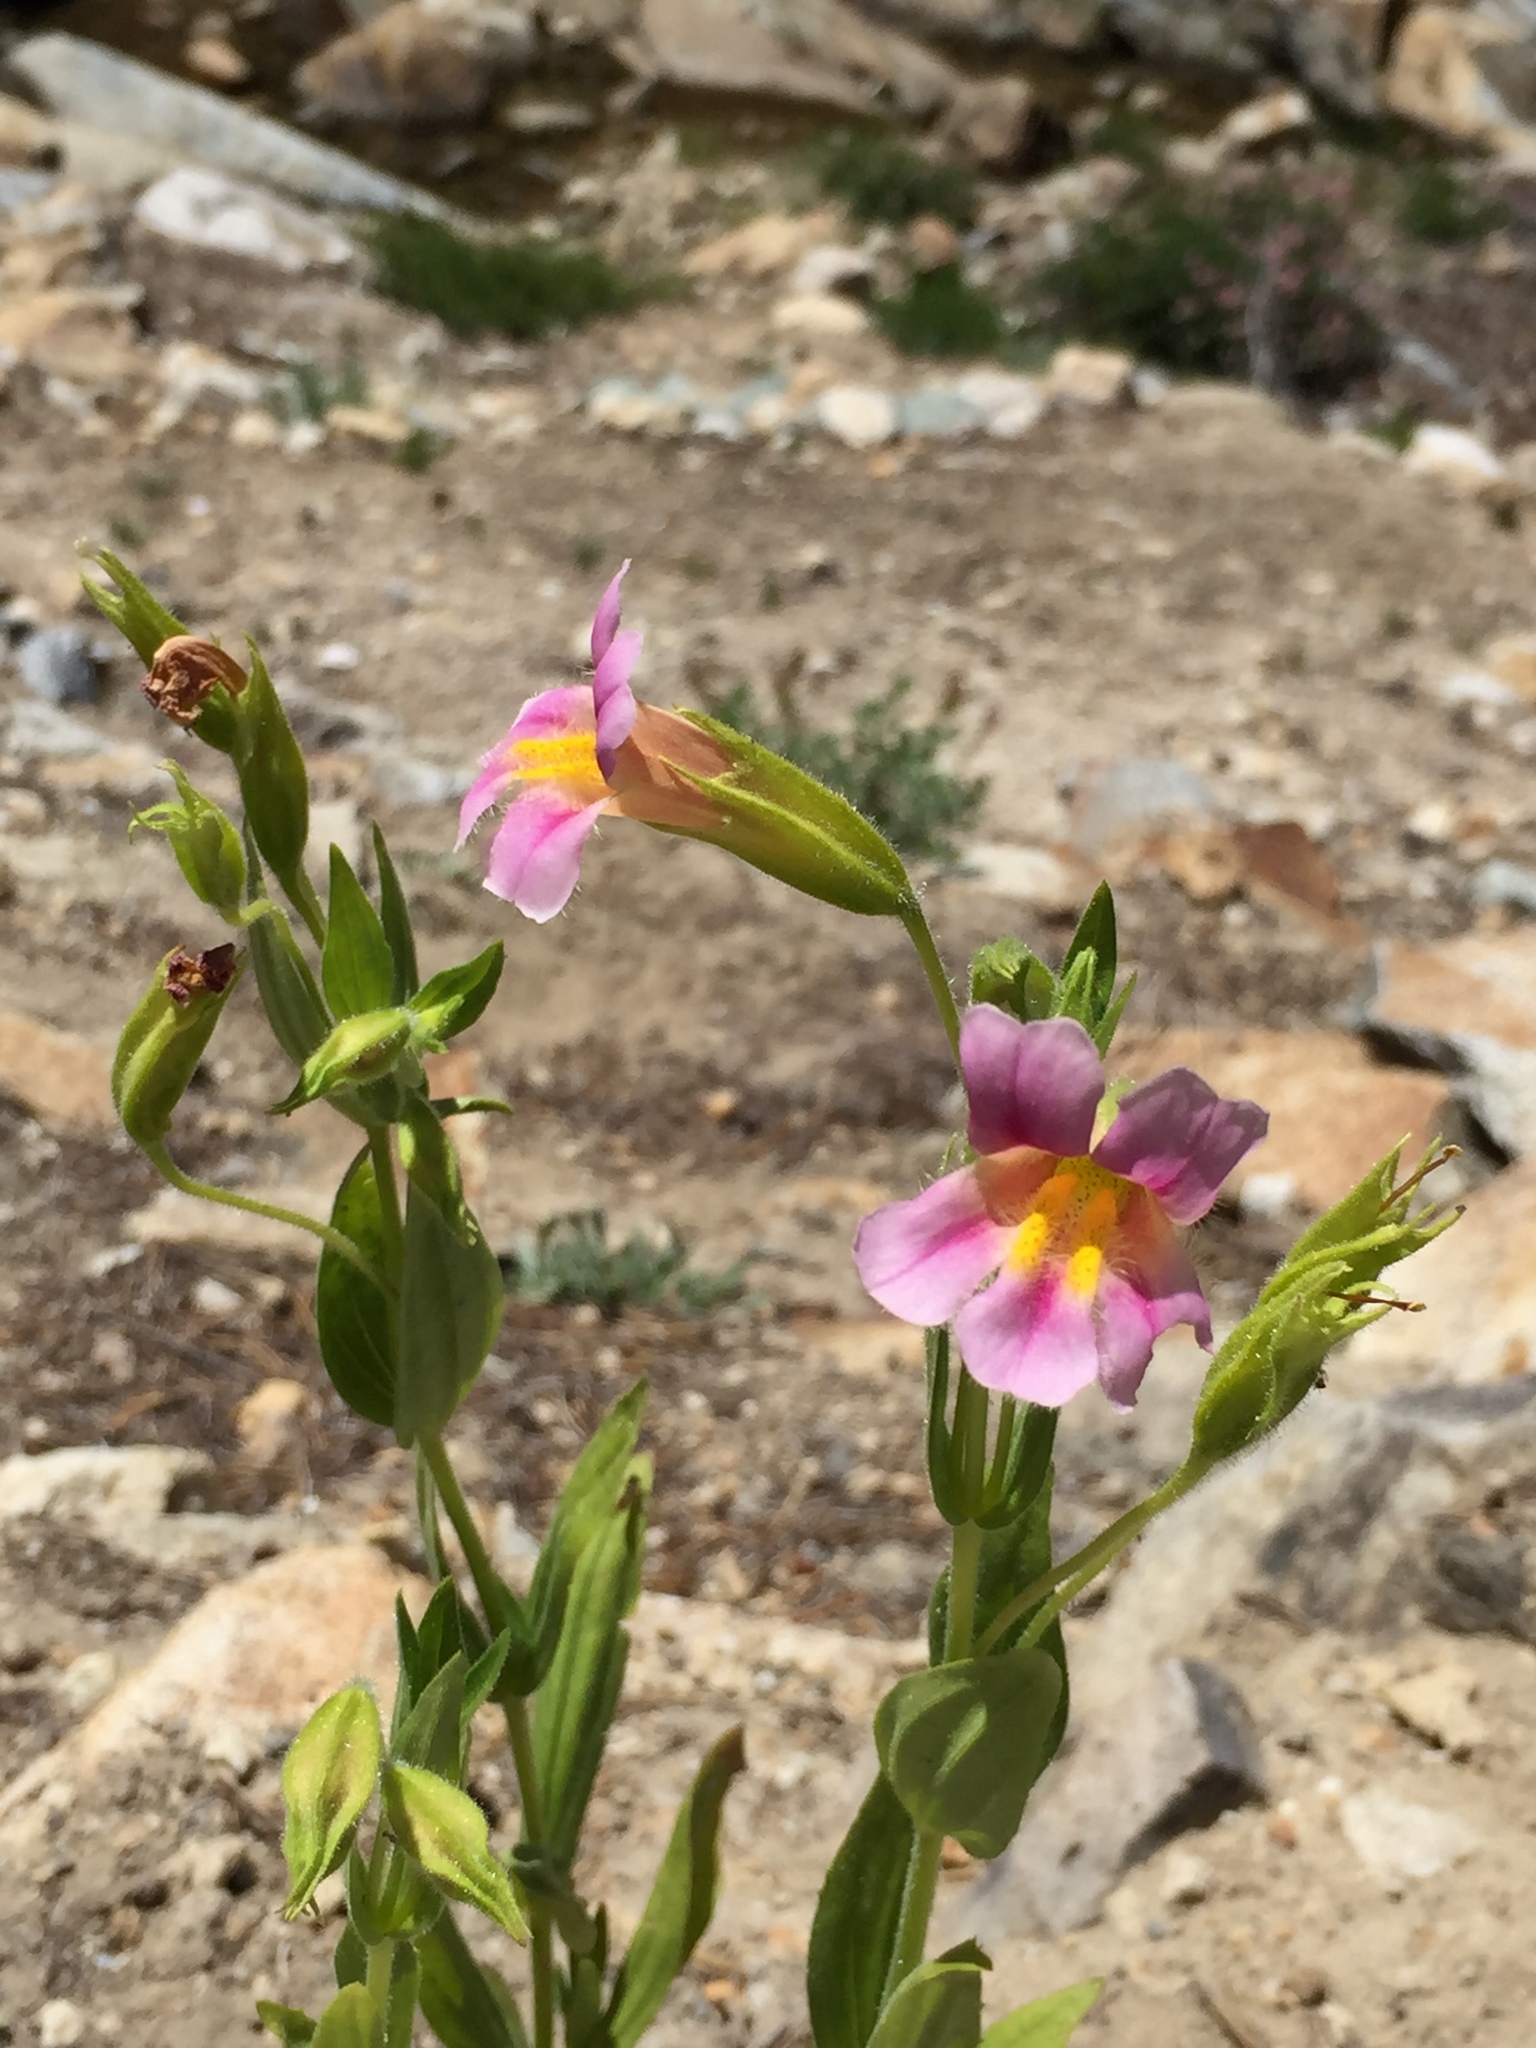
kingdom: Plantae
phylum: Tracheophyta
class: Magnoliopsida
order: Lamiales
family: Phrymaceae
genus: Erythranthe
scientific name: Erythranthe erubescens
